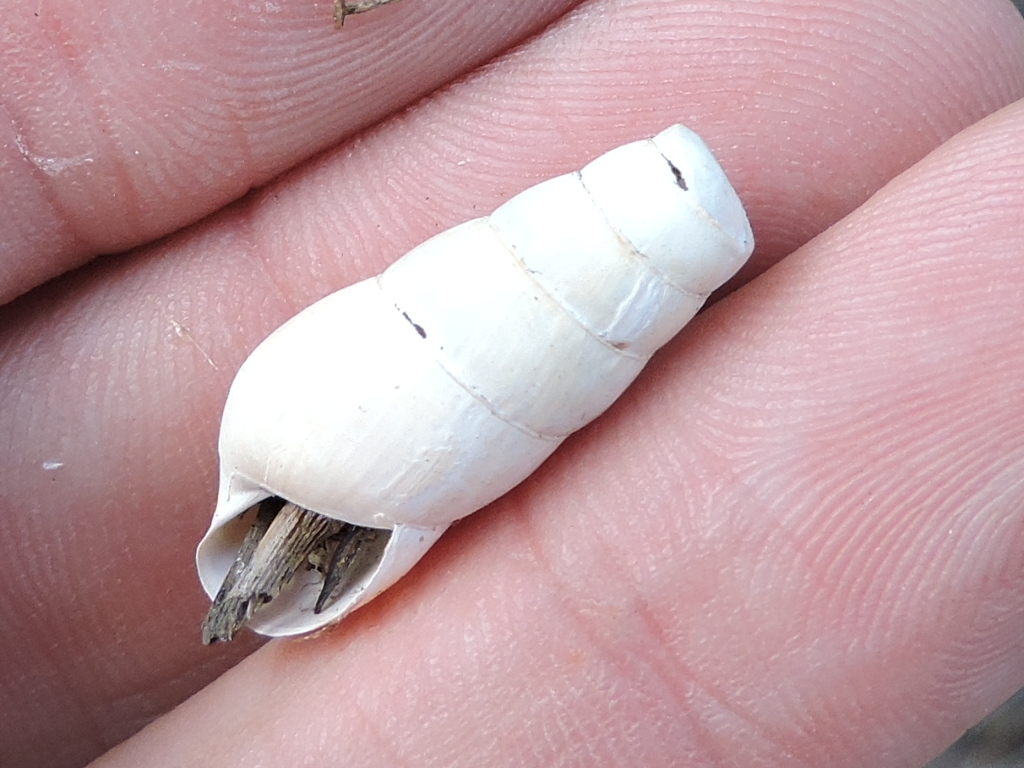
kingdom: Animalia
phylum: Mollusca
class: Gastropoda
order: Stylommatophora
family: Achatinidae
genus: Rumina
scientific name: Rumina decollata
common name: Decollate snail
